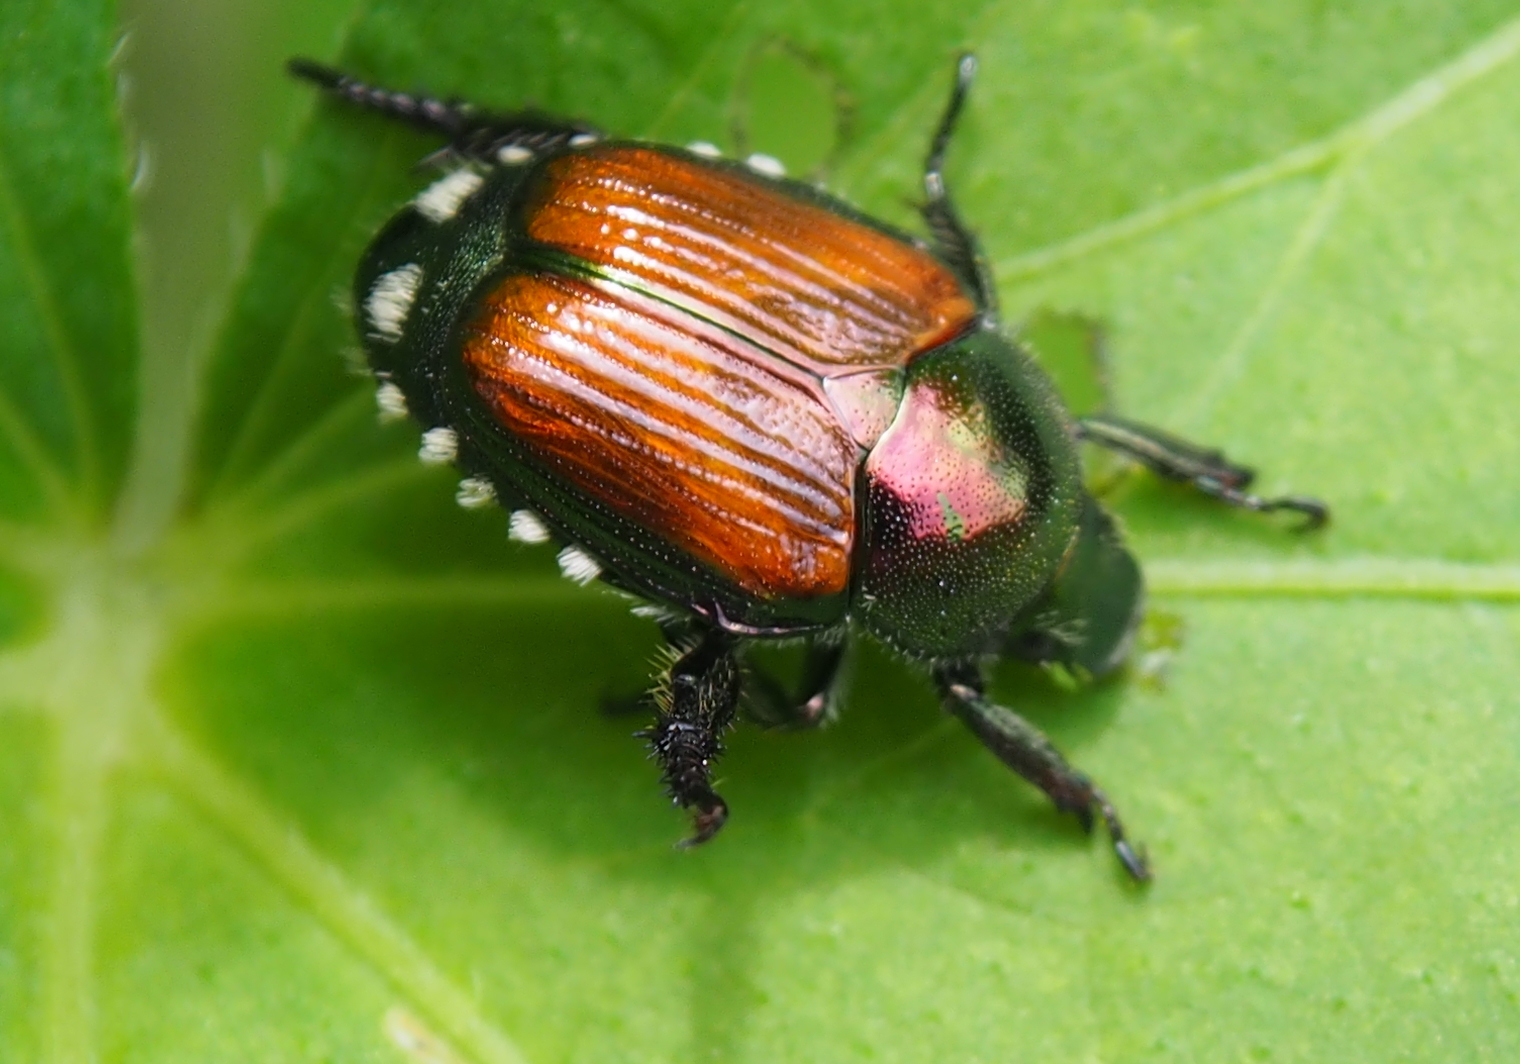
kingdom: Animalia
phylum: Arthropoda
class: Insecta
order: Coleoptera
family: Scarabaeidae
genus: Popillia
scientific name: Popillia japonica
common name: Japanese beetle
